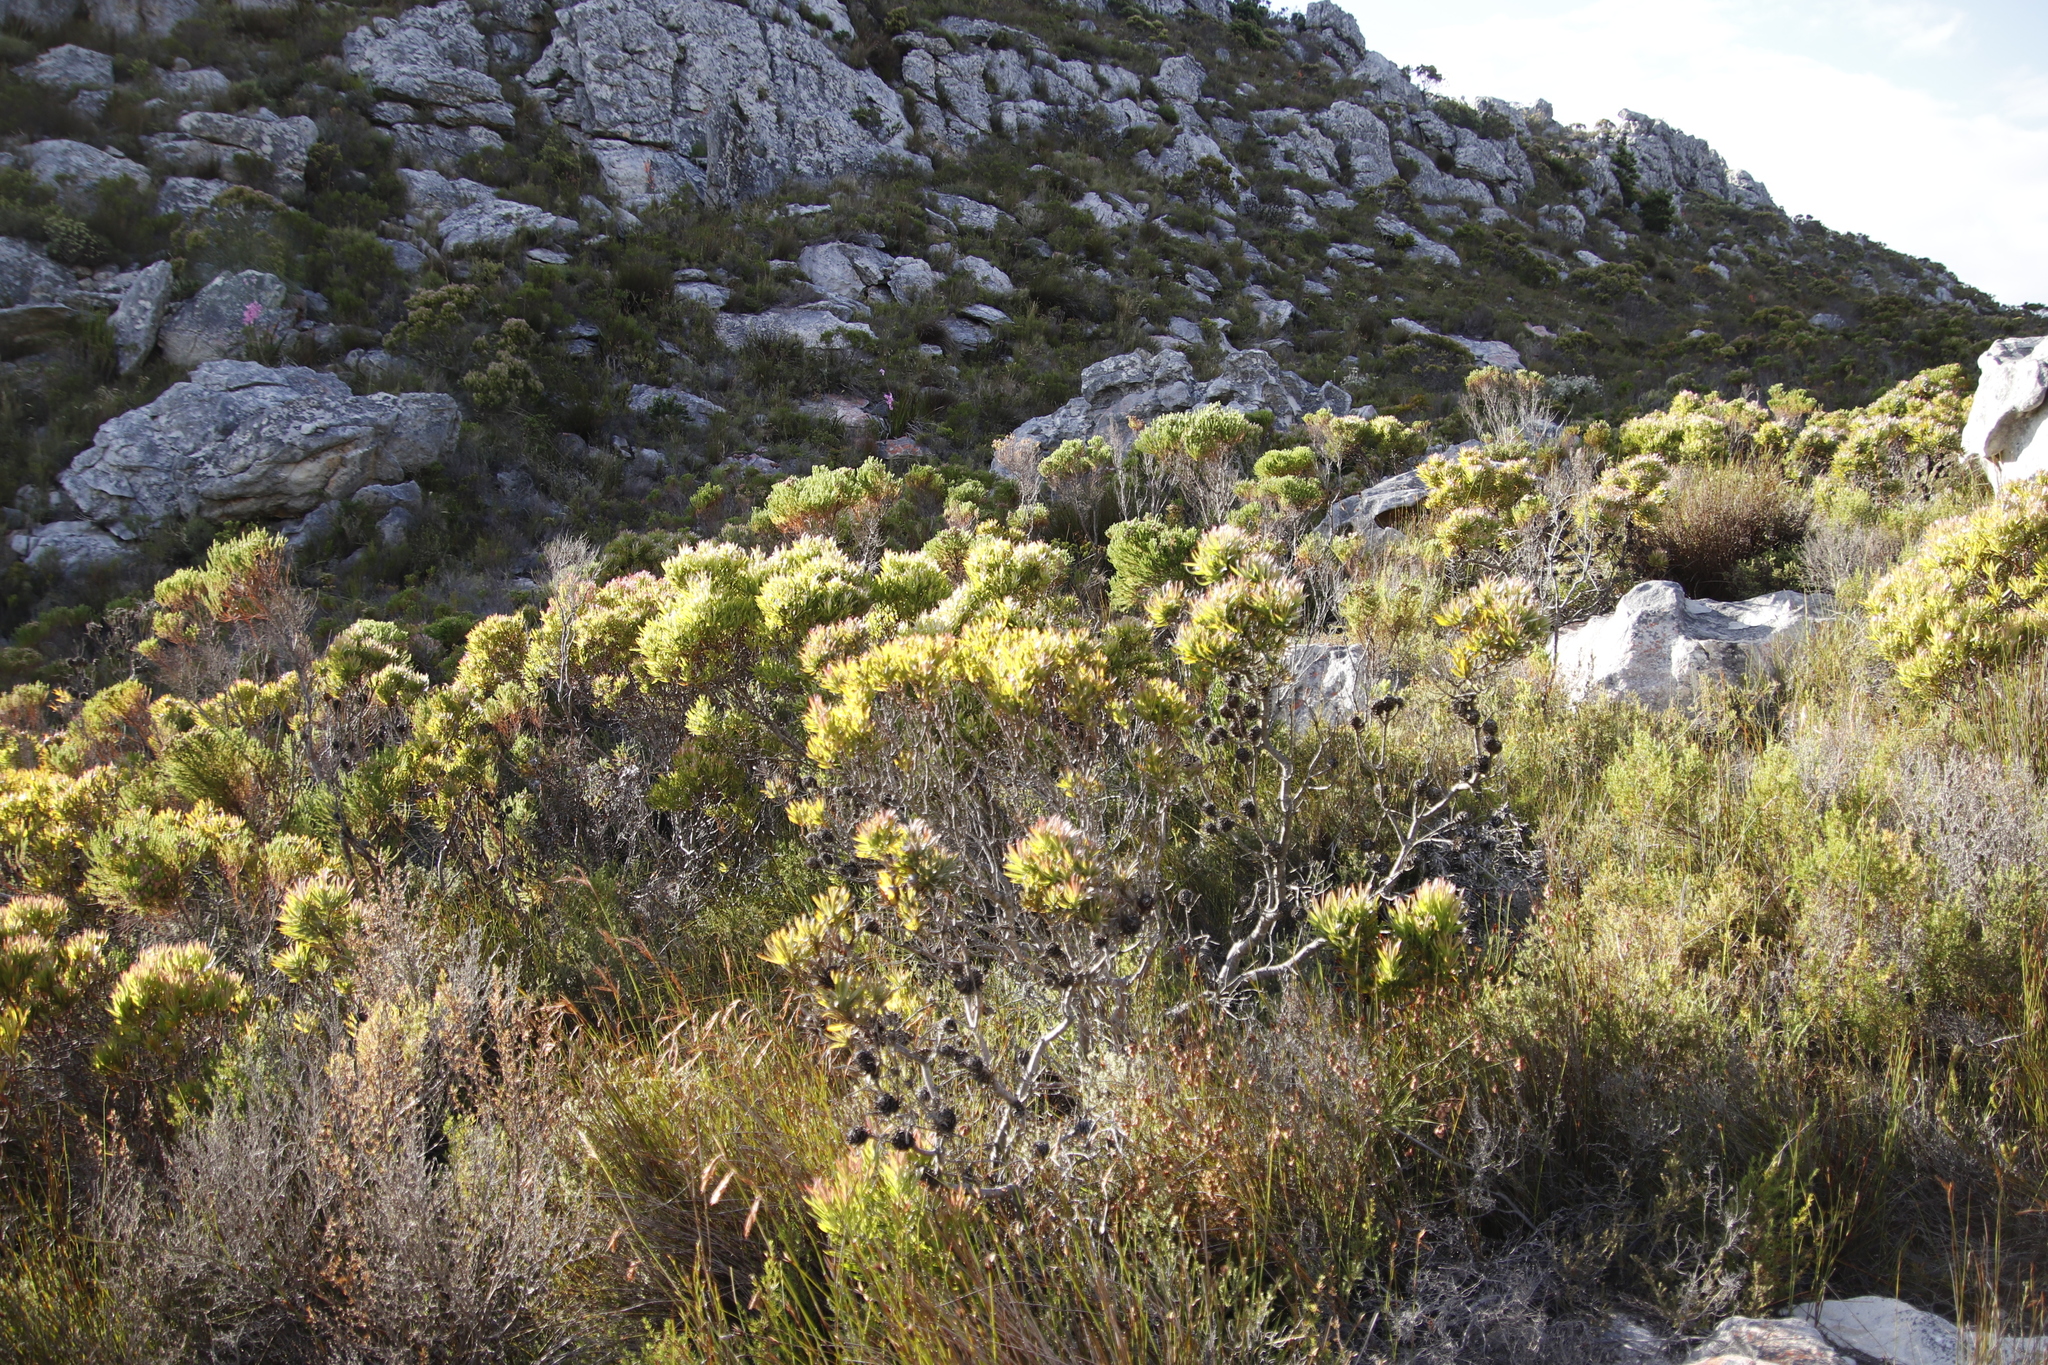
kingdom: Plantae
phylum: Tracheophyta
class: Magnoliopsida
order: Proteales
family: Proteaceae
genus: Leucadendron
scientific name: Leucadendron xanthoconus
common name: Sickle-leaf conebush
